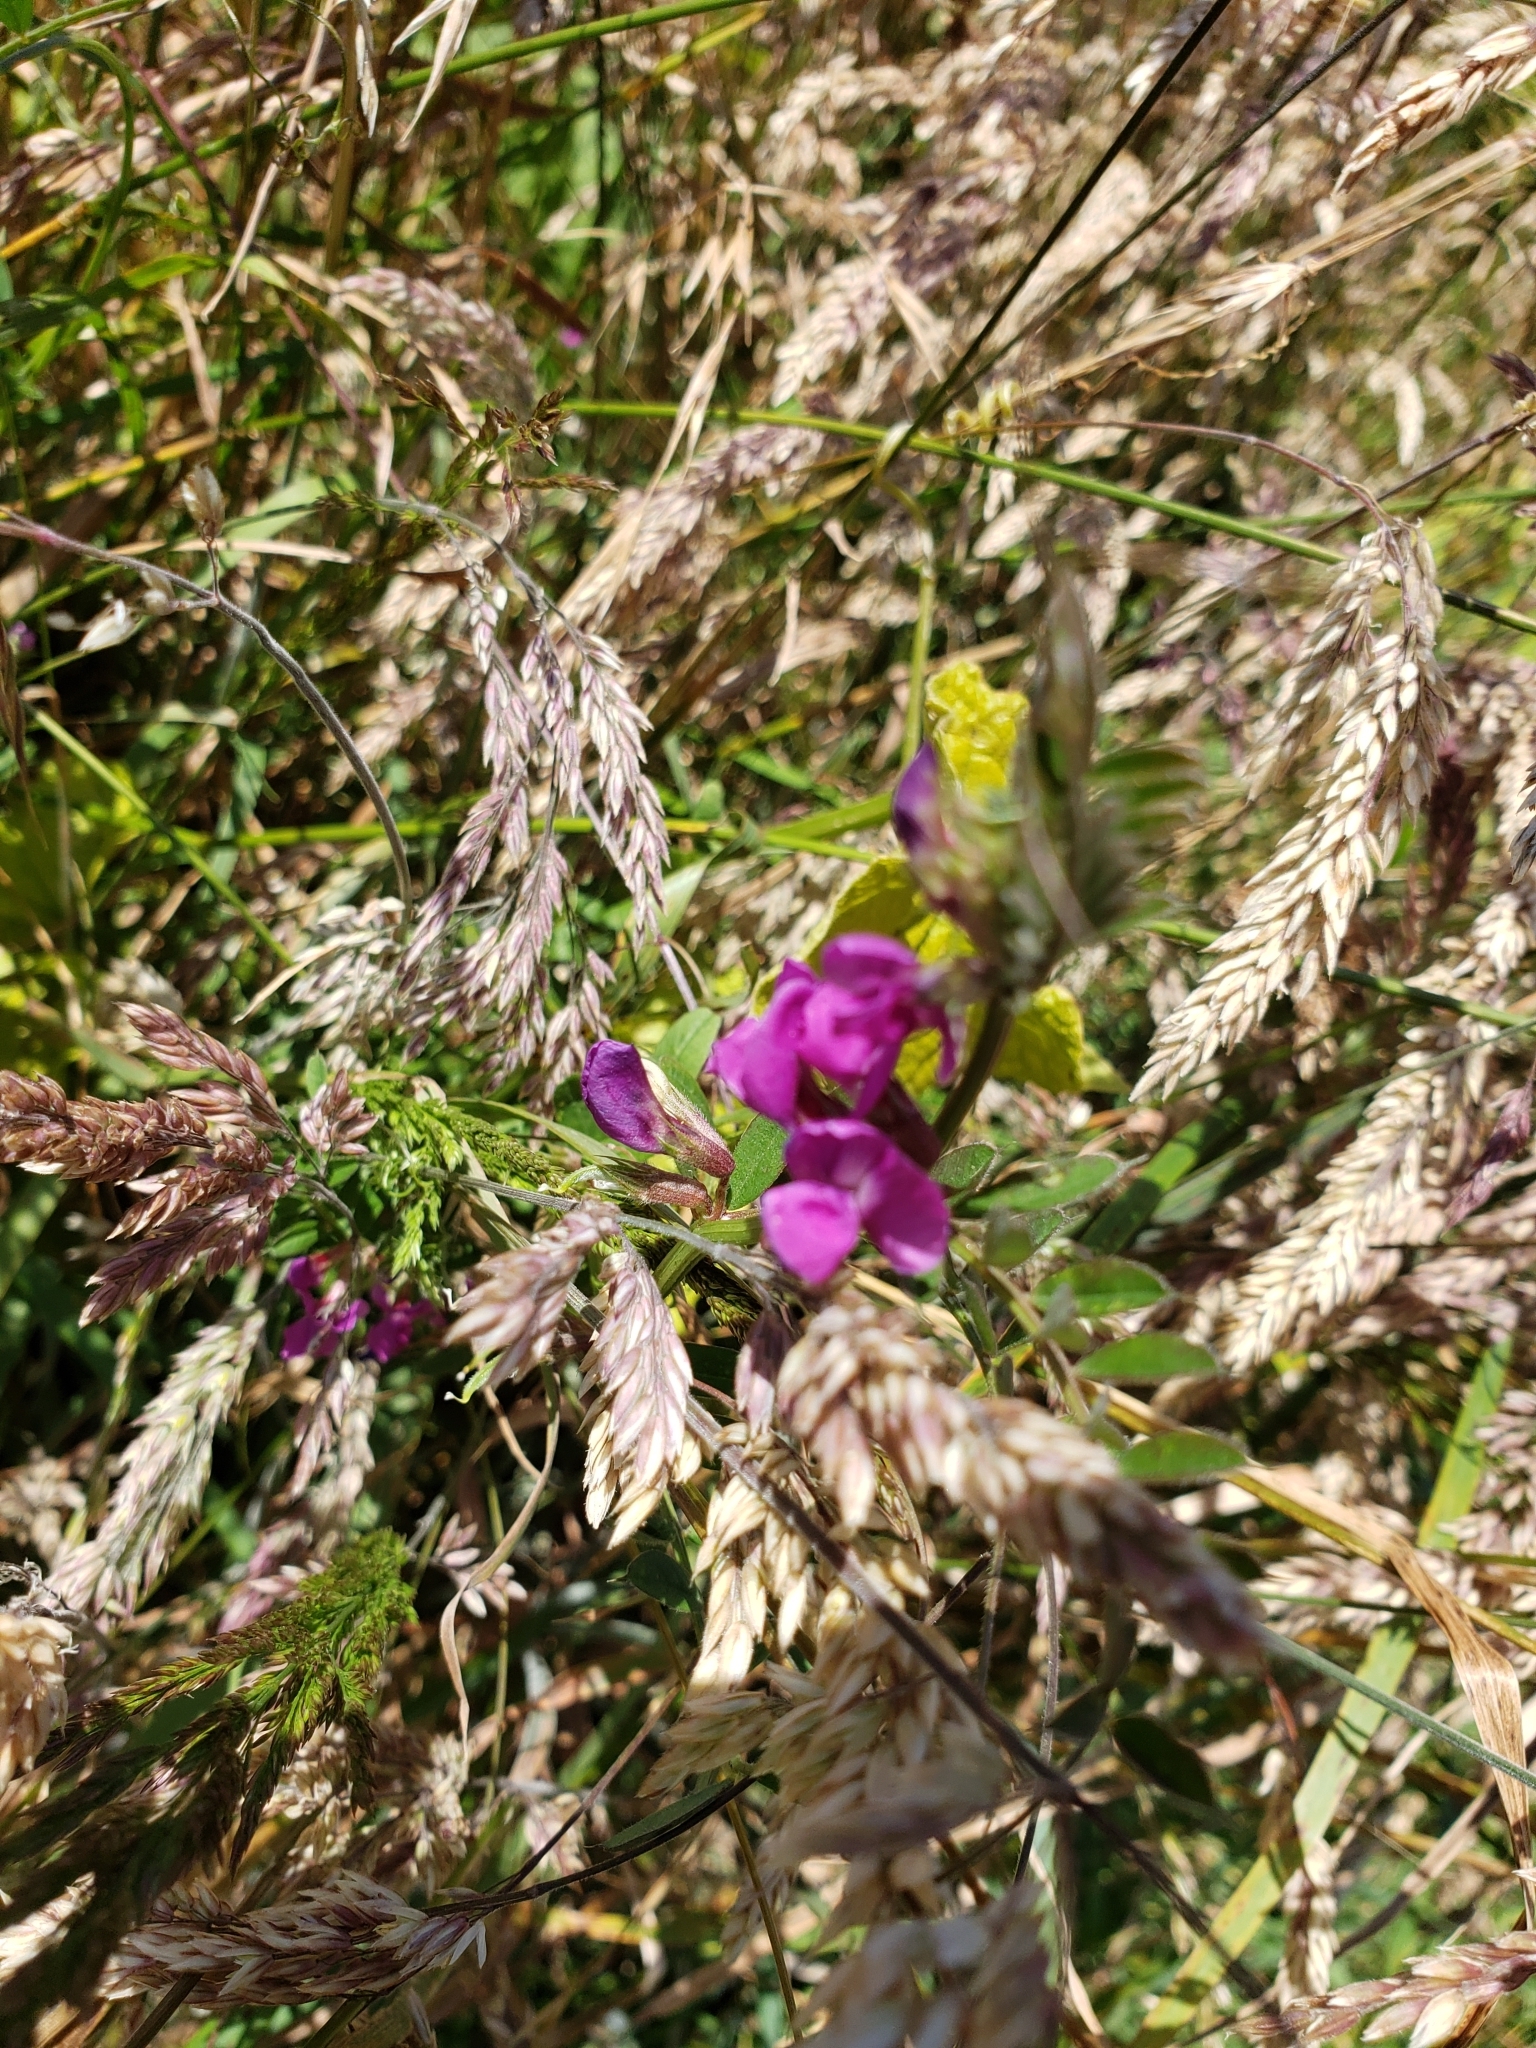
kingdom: Plantae
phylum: Tracheophyta
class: Magnoliopsida
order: Fabales
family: Fabaceae
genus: Vicia
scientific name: Vicia sativa
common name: Garden vetch
